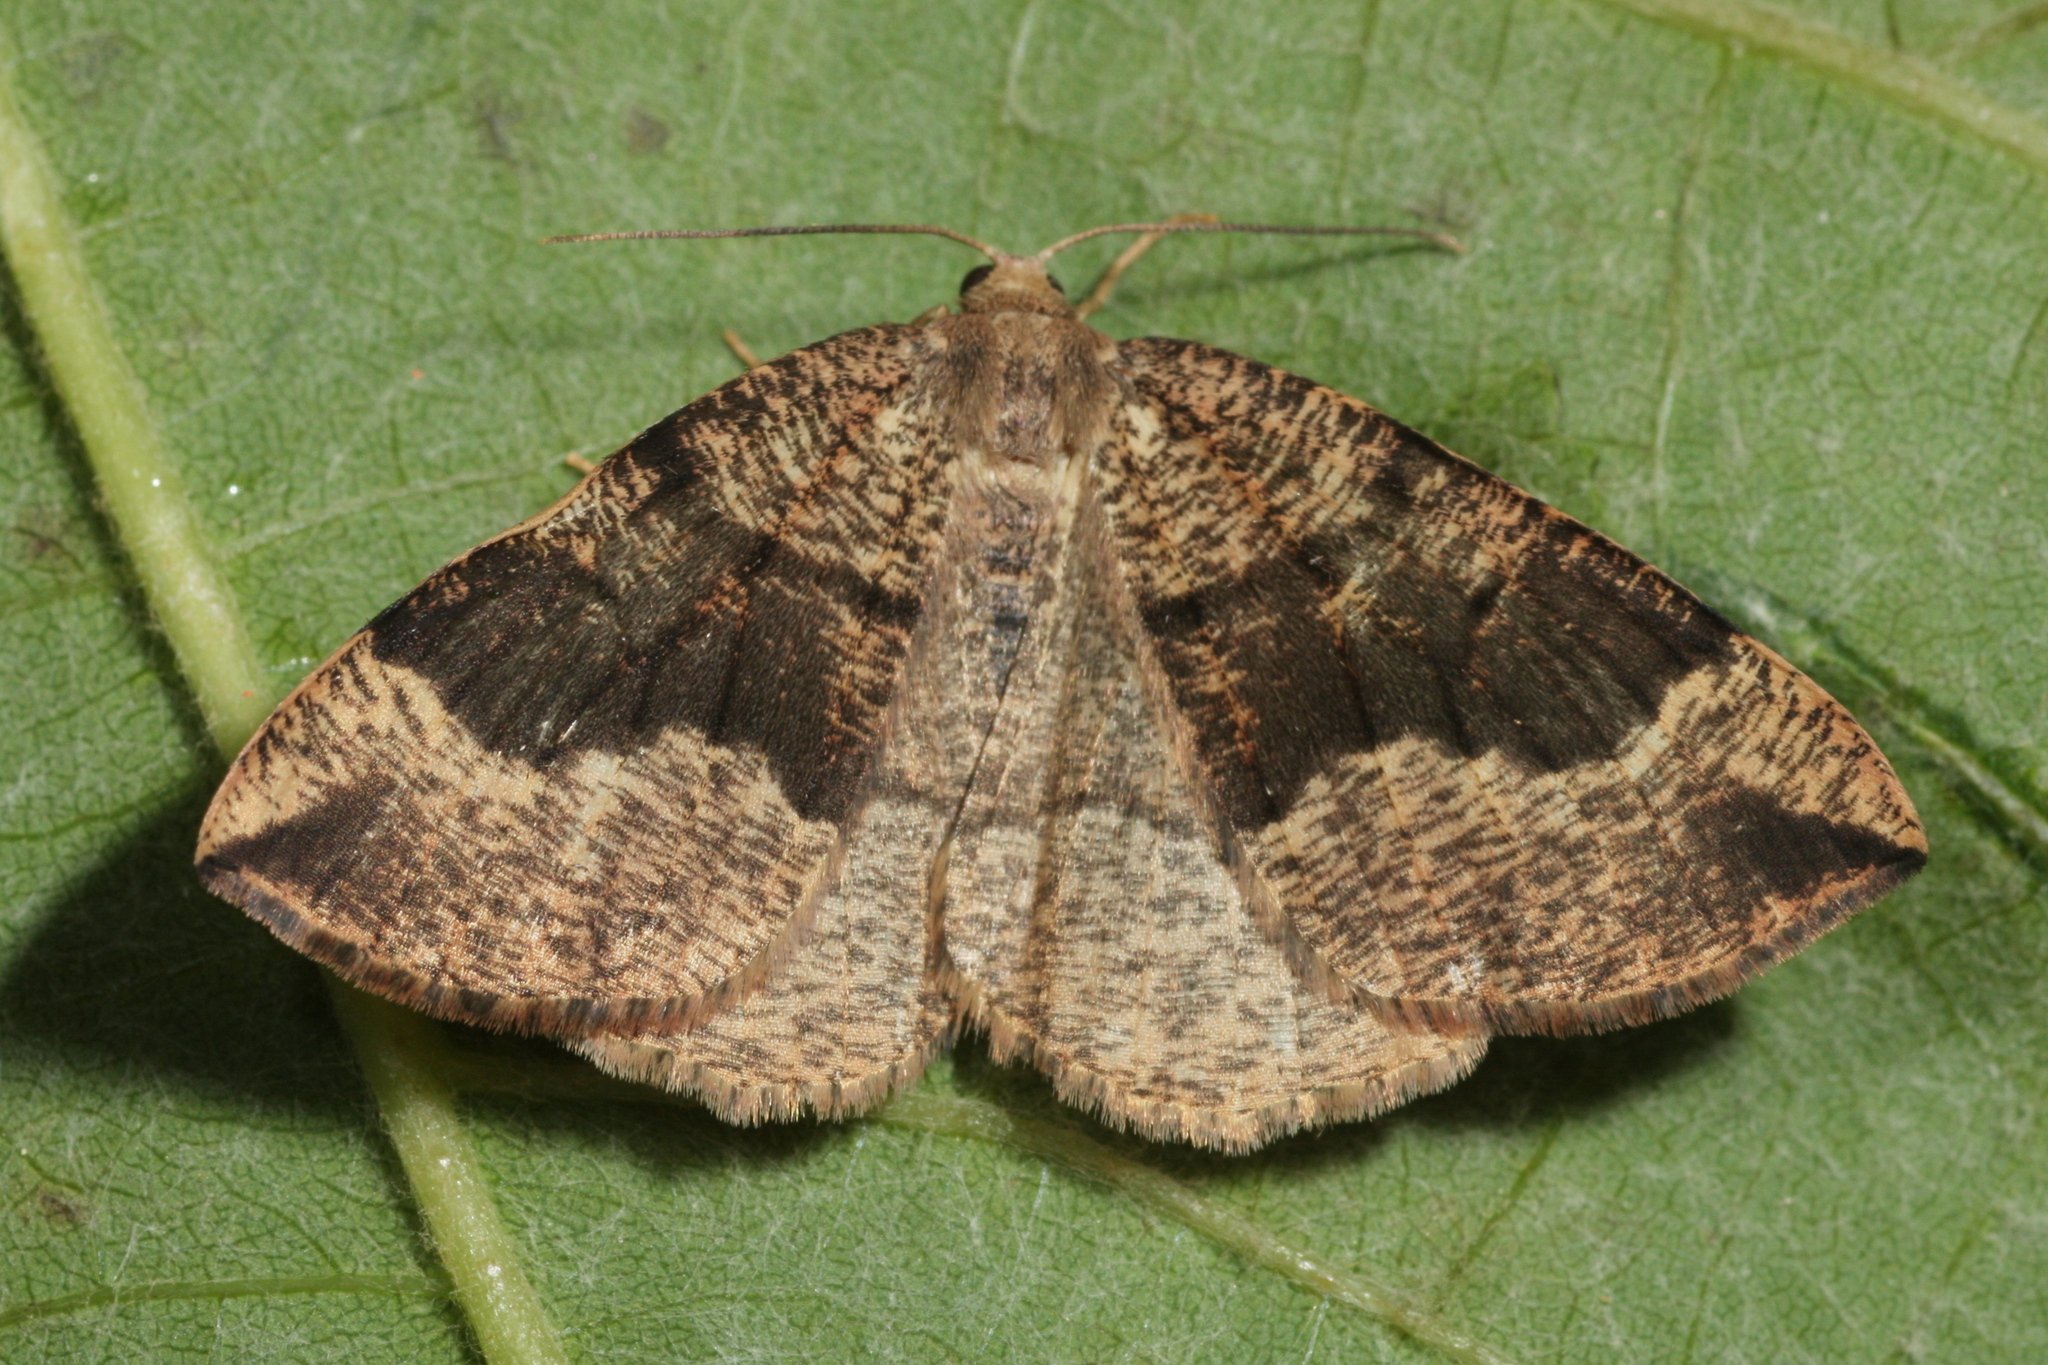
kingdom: Animalia
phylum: Arthropoda
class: Insecta
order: Lepidoptera
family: Geometridae
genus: Pungeleria
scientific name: Pungeleria capreolaria
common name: Banded pine carpet
